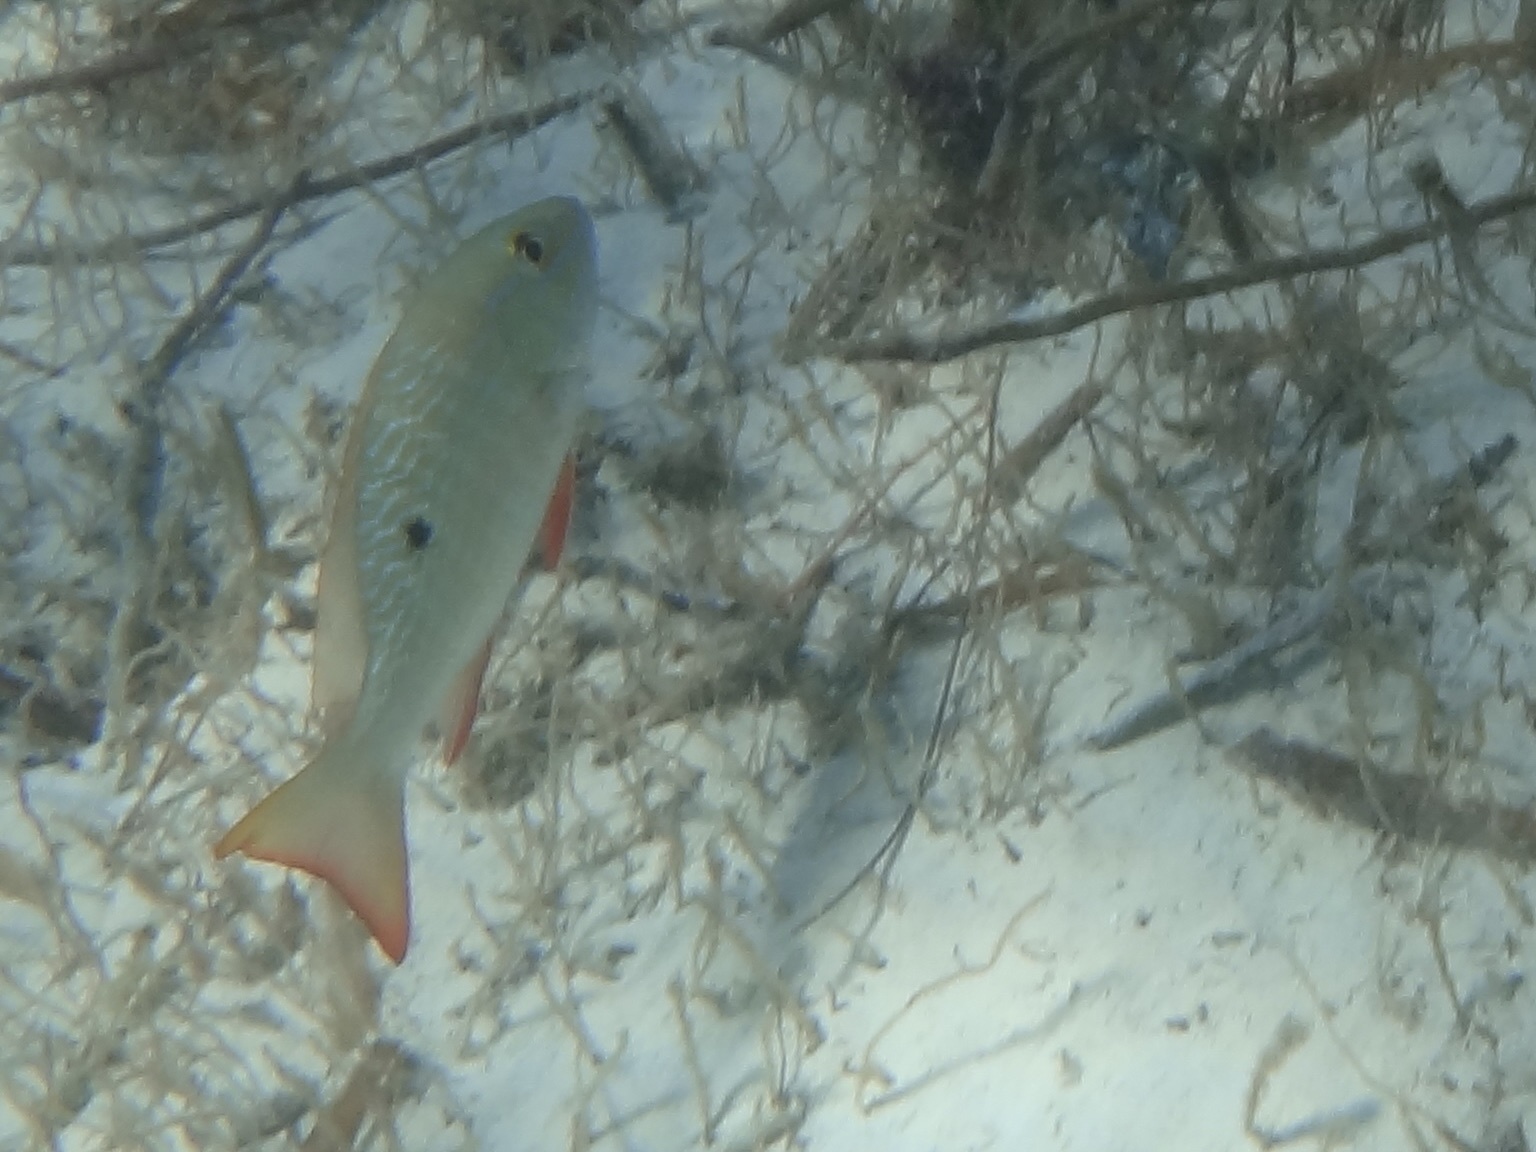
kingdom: Animalia
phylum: Chordata
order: Perciformes
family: Lutjanidae
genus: Lutjanus
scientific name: Lutjanus analis
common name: Mutton snapper
